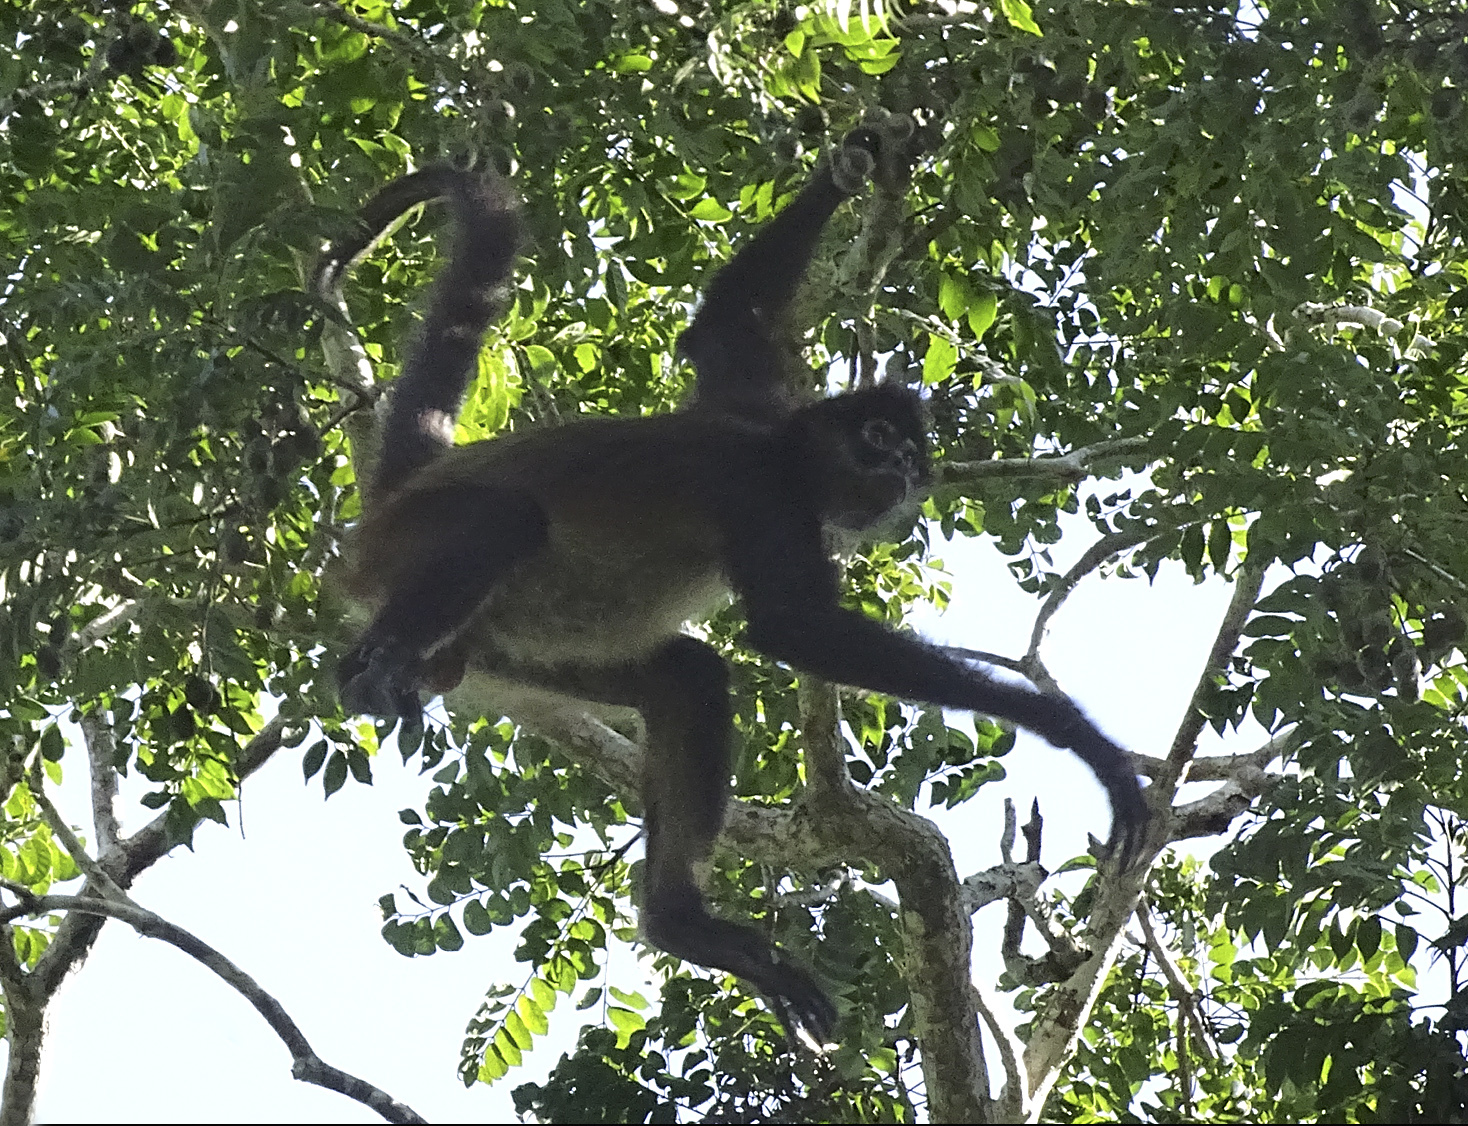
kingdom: Animalia
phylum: Chordata
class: Mammalia
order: Primates
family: Atelidae
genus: Ateles
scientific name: Ateles geoffroyi
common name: Black-handed spider monkey
